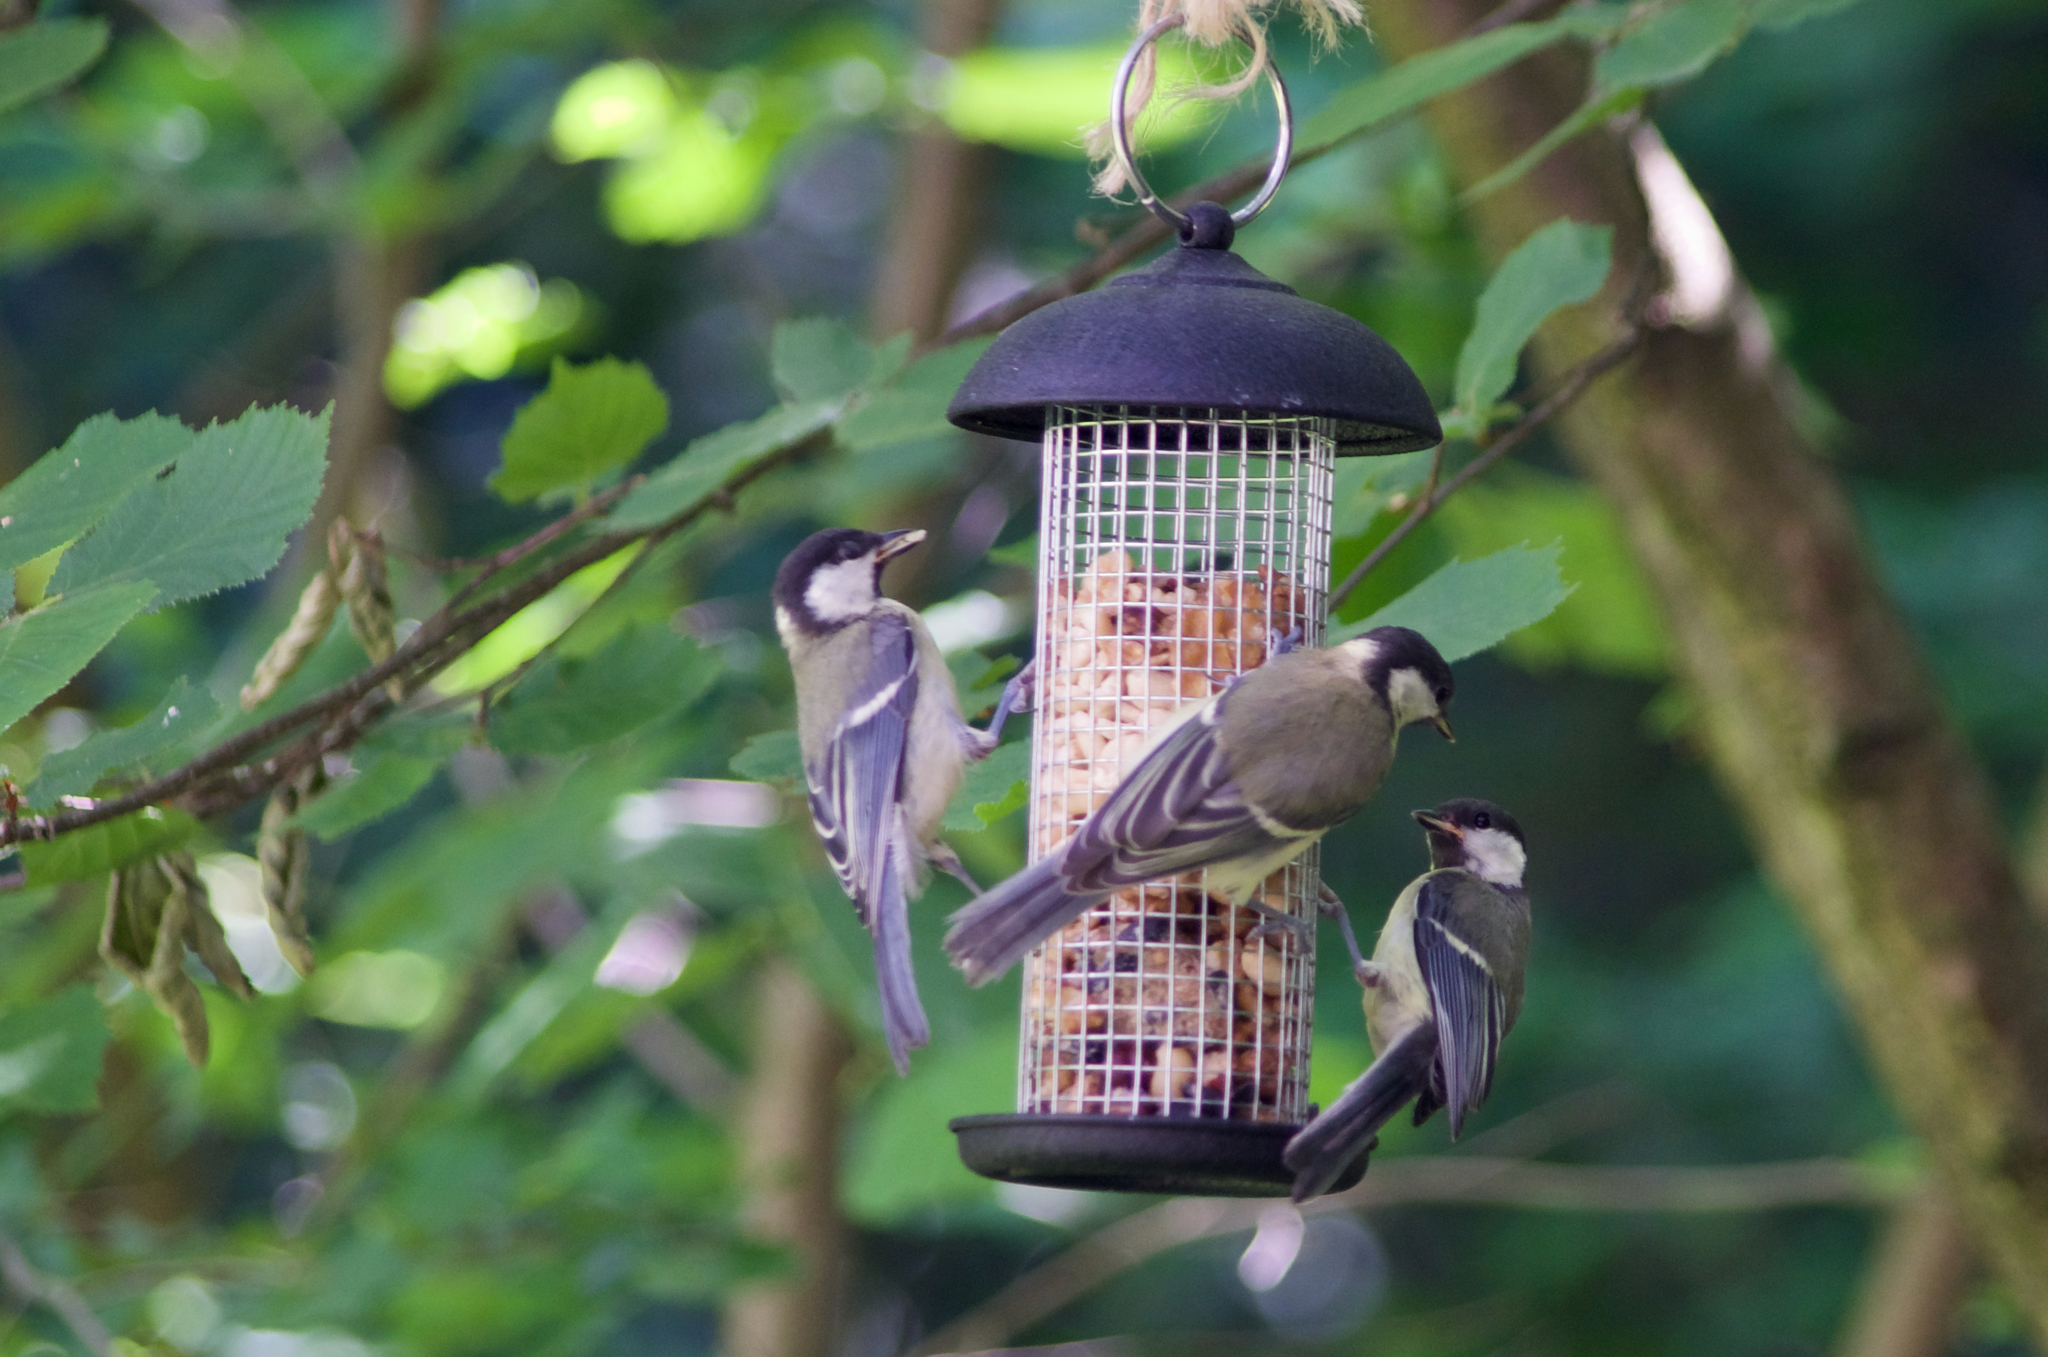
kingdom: Animalia
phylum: Chordata
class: Aves
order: Passeriformes
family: Paridae
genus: Parus
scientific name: Parus major
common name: Great tit
